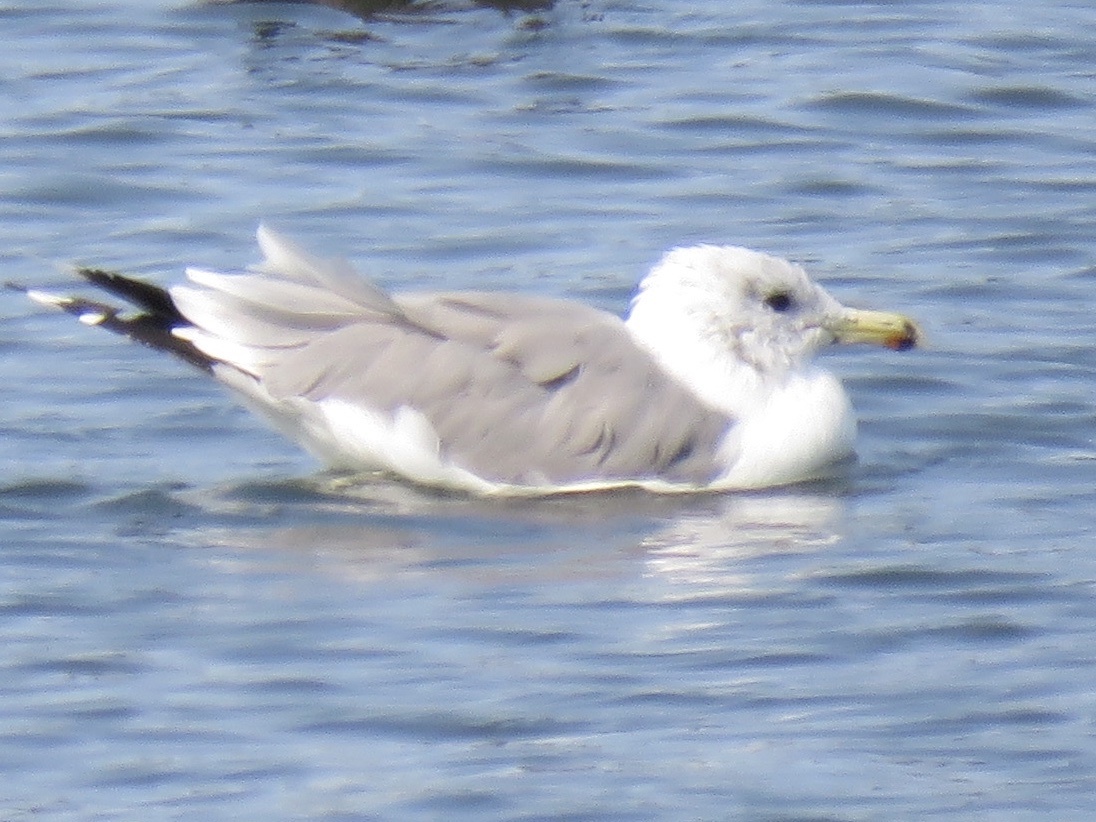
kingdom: Animalia
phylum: Chordata
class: Aves
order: Charadriiformes
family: Laridae
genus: Larus
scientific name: Larus californicus
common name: California gull
